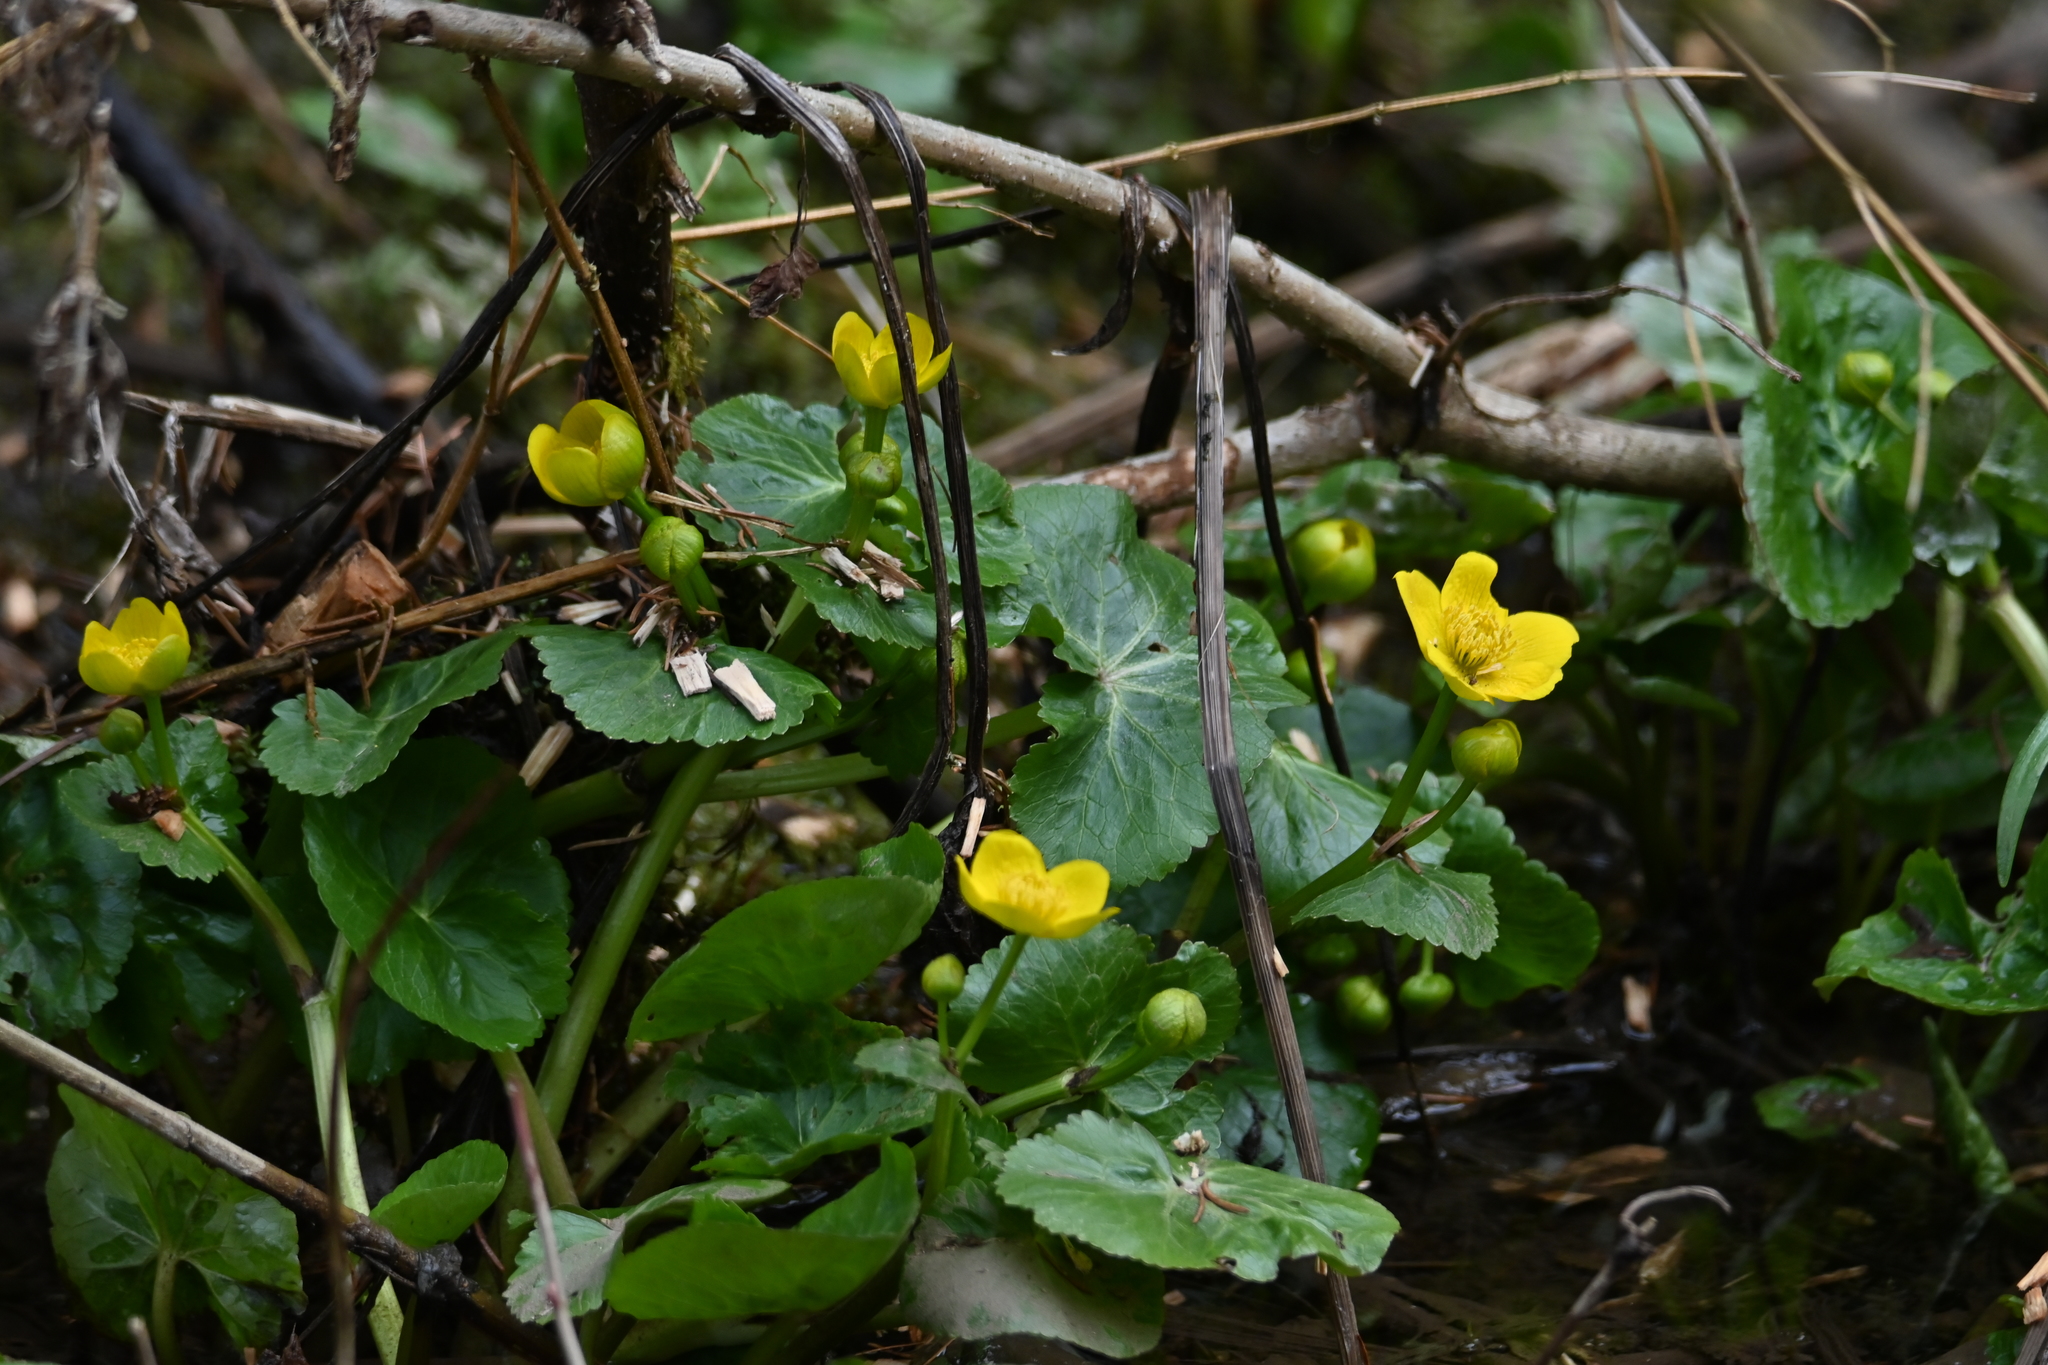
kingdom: Plantae
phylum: Tracheophyta
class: Magnoliopsida
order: Ranunculales
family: Ranunculaceae
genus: Caltha
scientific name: Caltha palustris
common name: Marsh marigold
